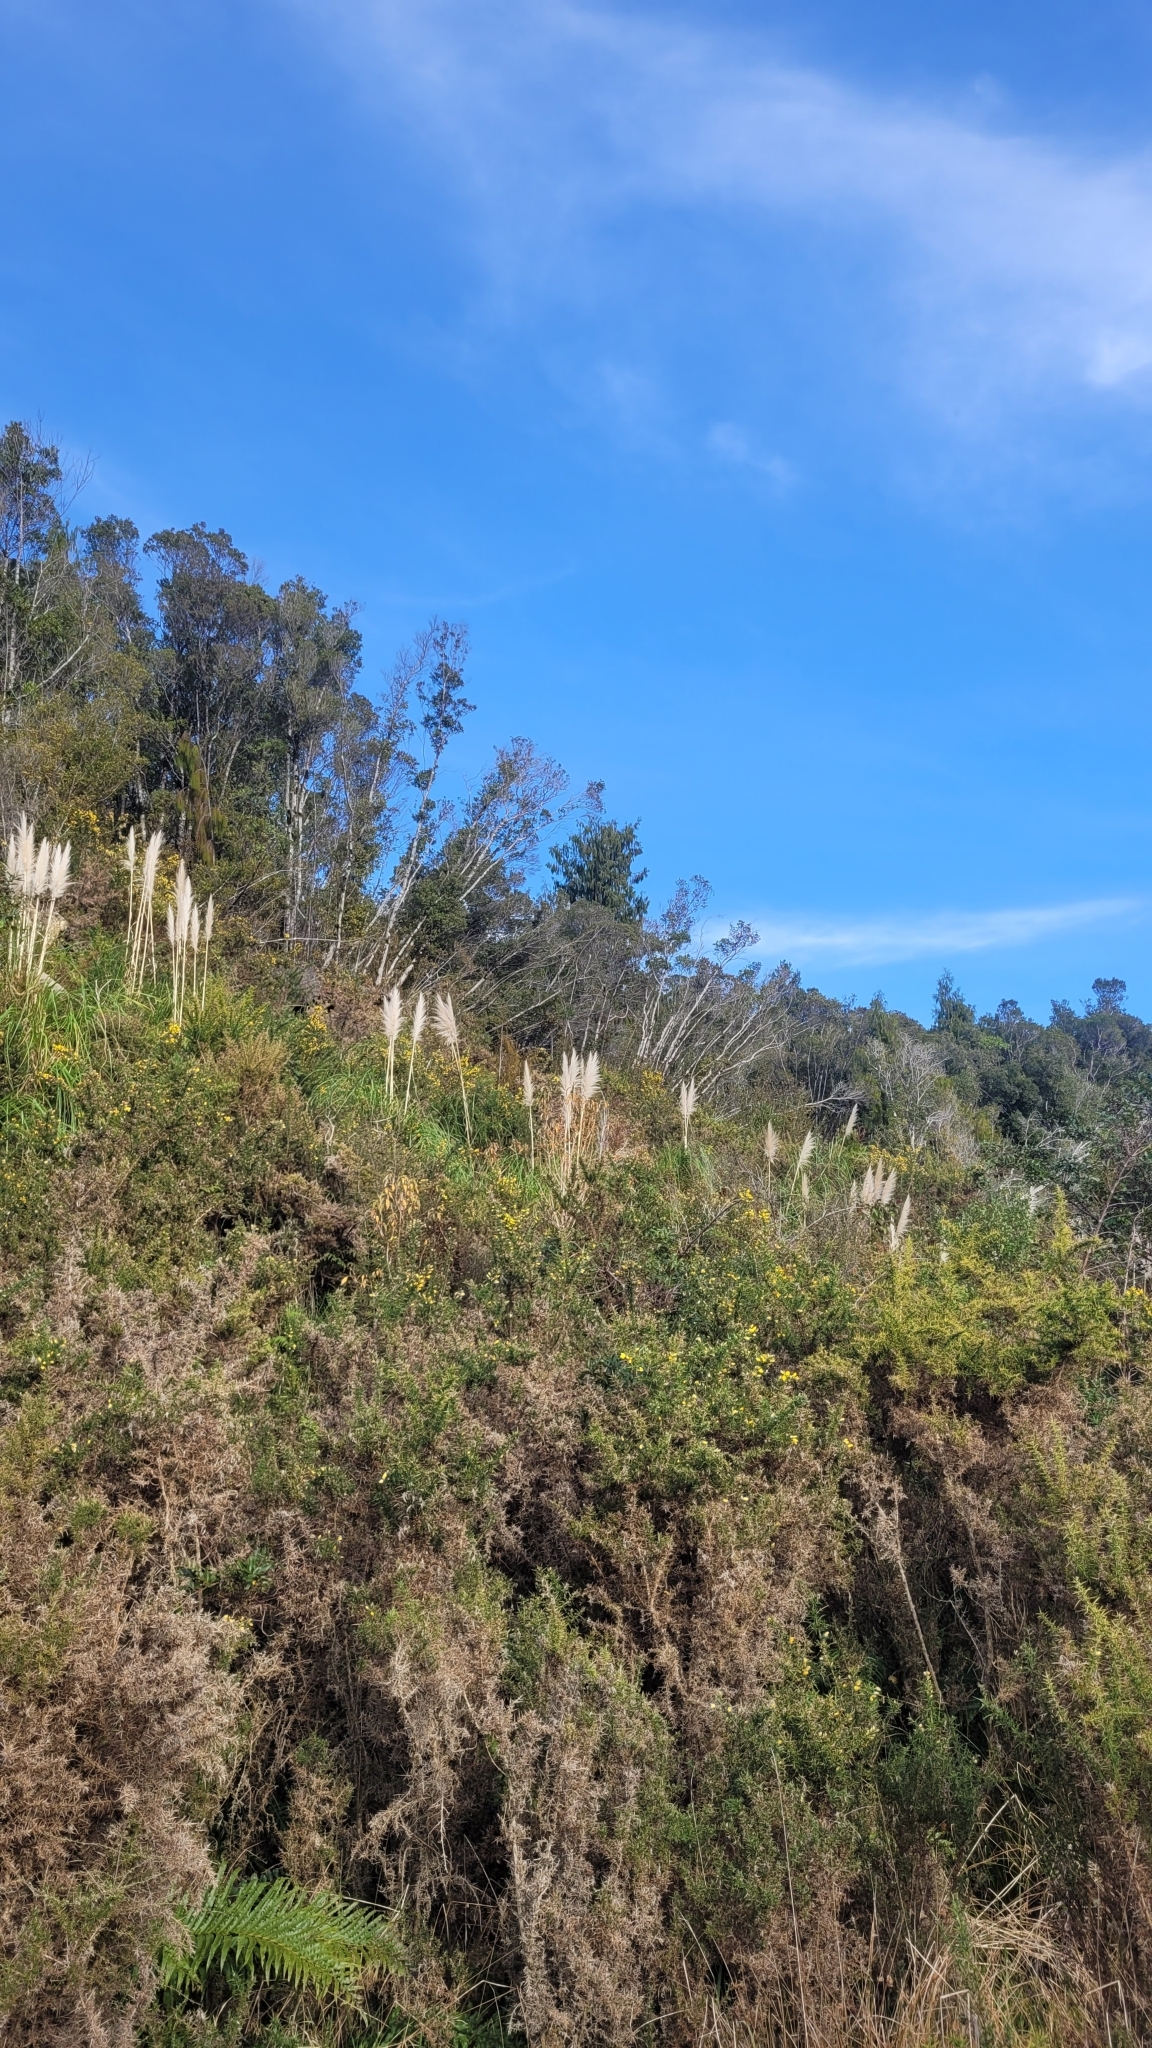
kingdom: Plantae
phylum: Tracheophyta
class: Liliopsida
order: Poales
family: Poaceae
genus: Cortaderia
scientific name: Cortaderia jubata
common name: Purple pampas grass
